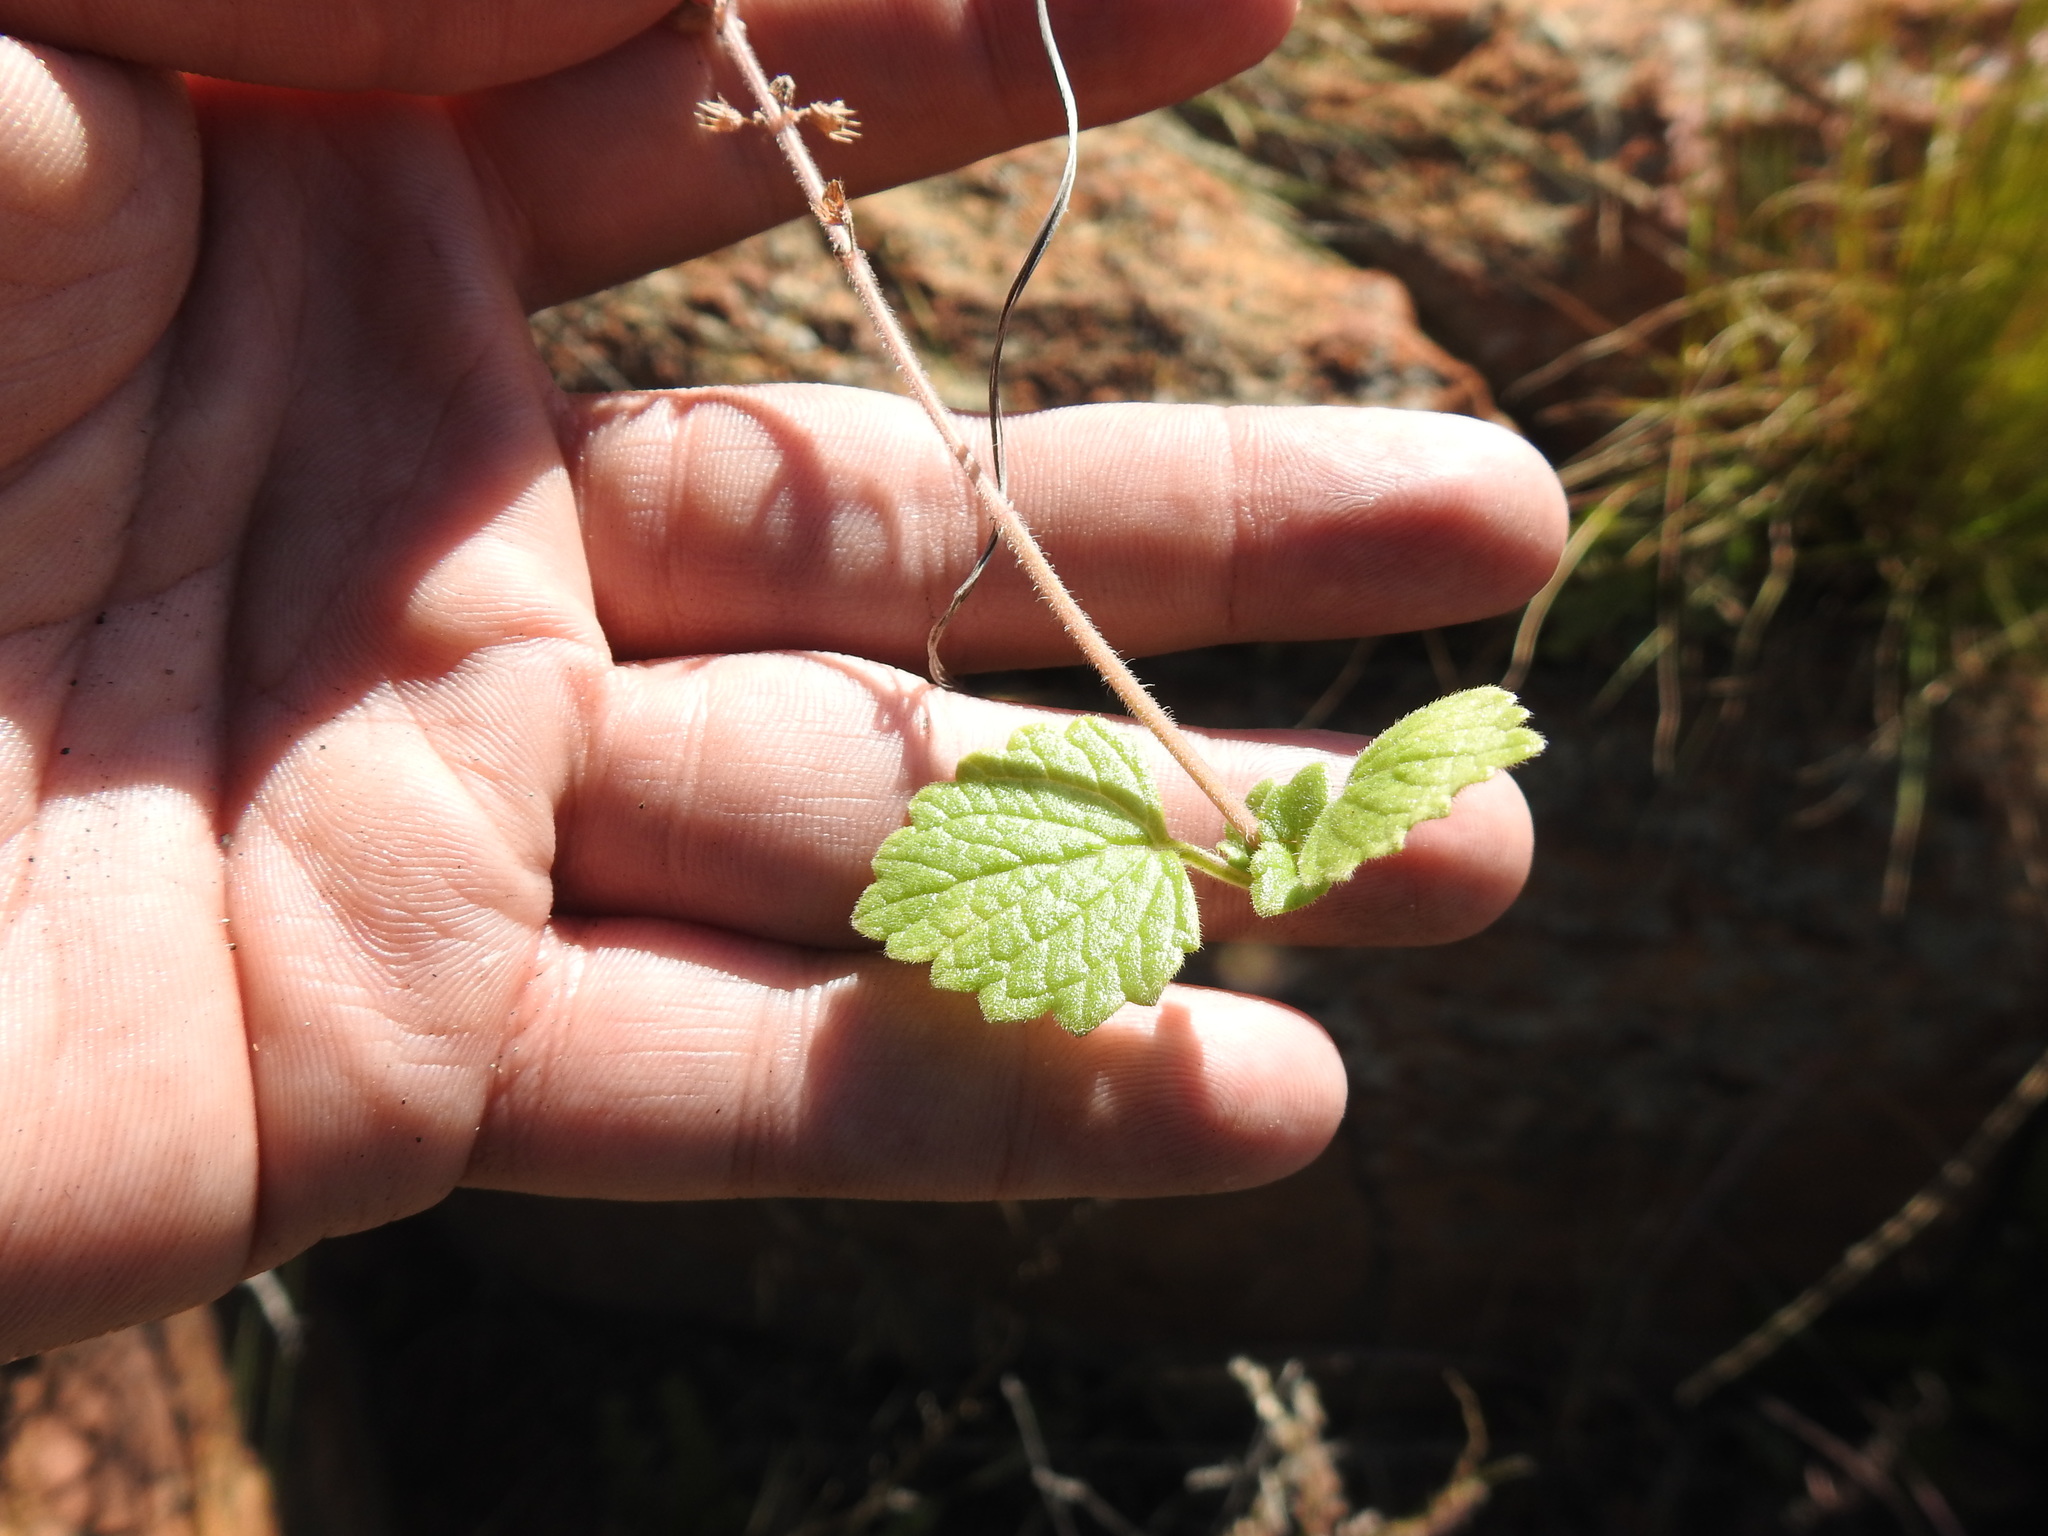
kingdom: Plantae
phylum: Tracheophyta
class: Magnoliopsida
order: Lamiales
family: Lamiaceae
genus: Coleus
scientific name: Coleus hadiensis
